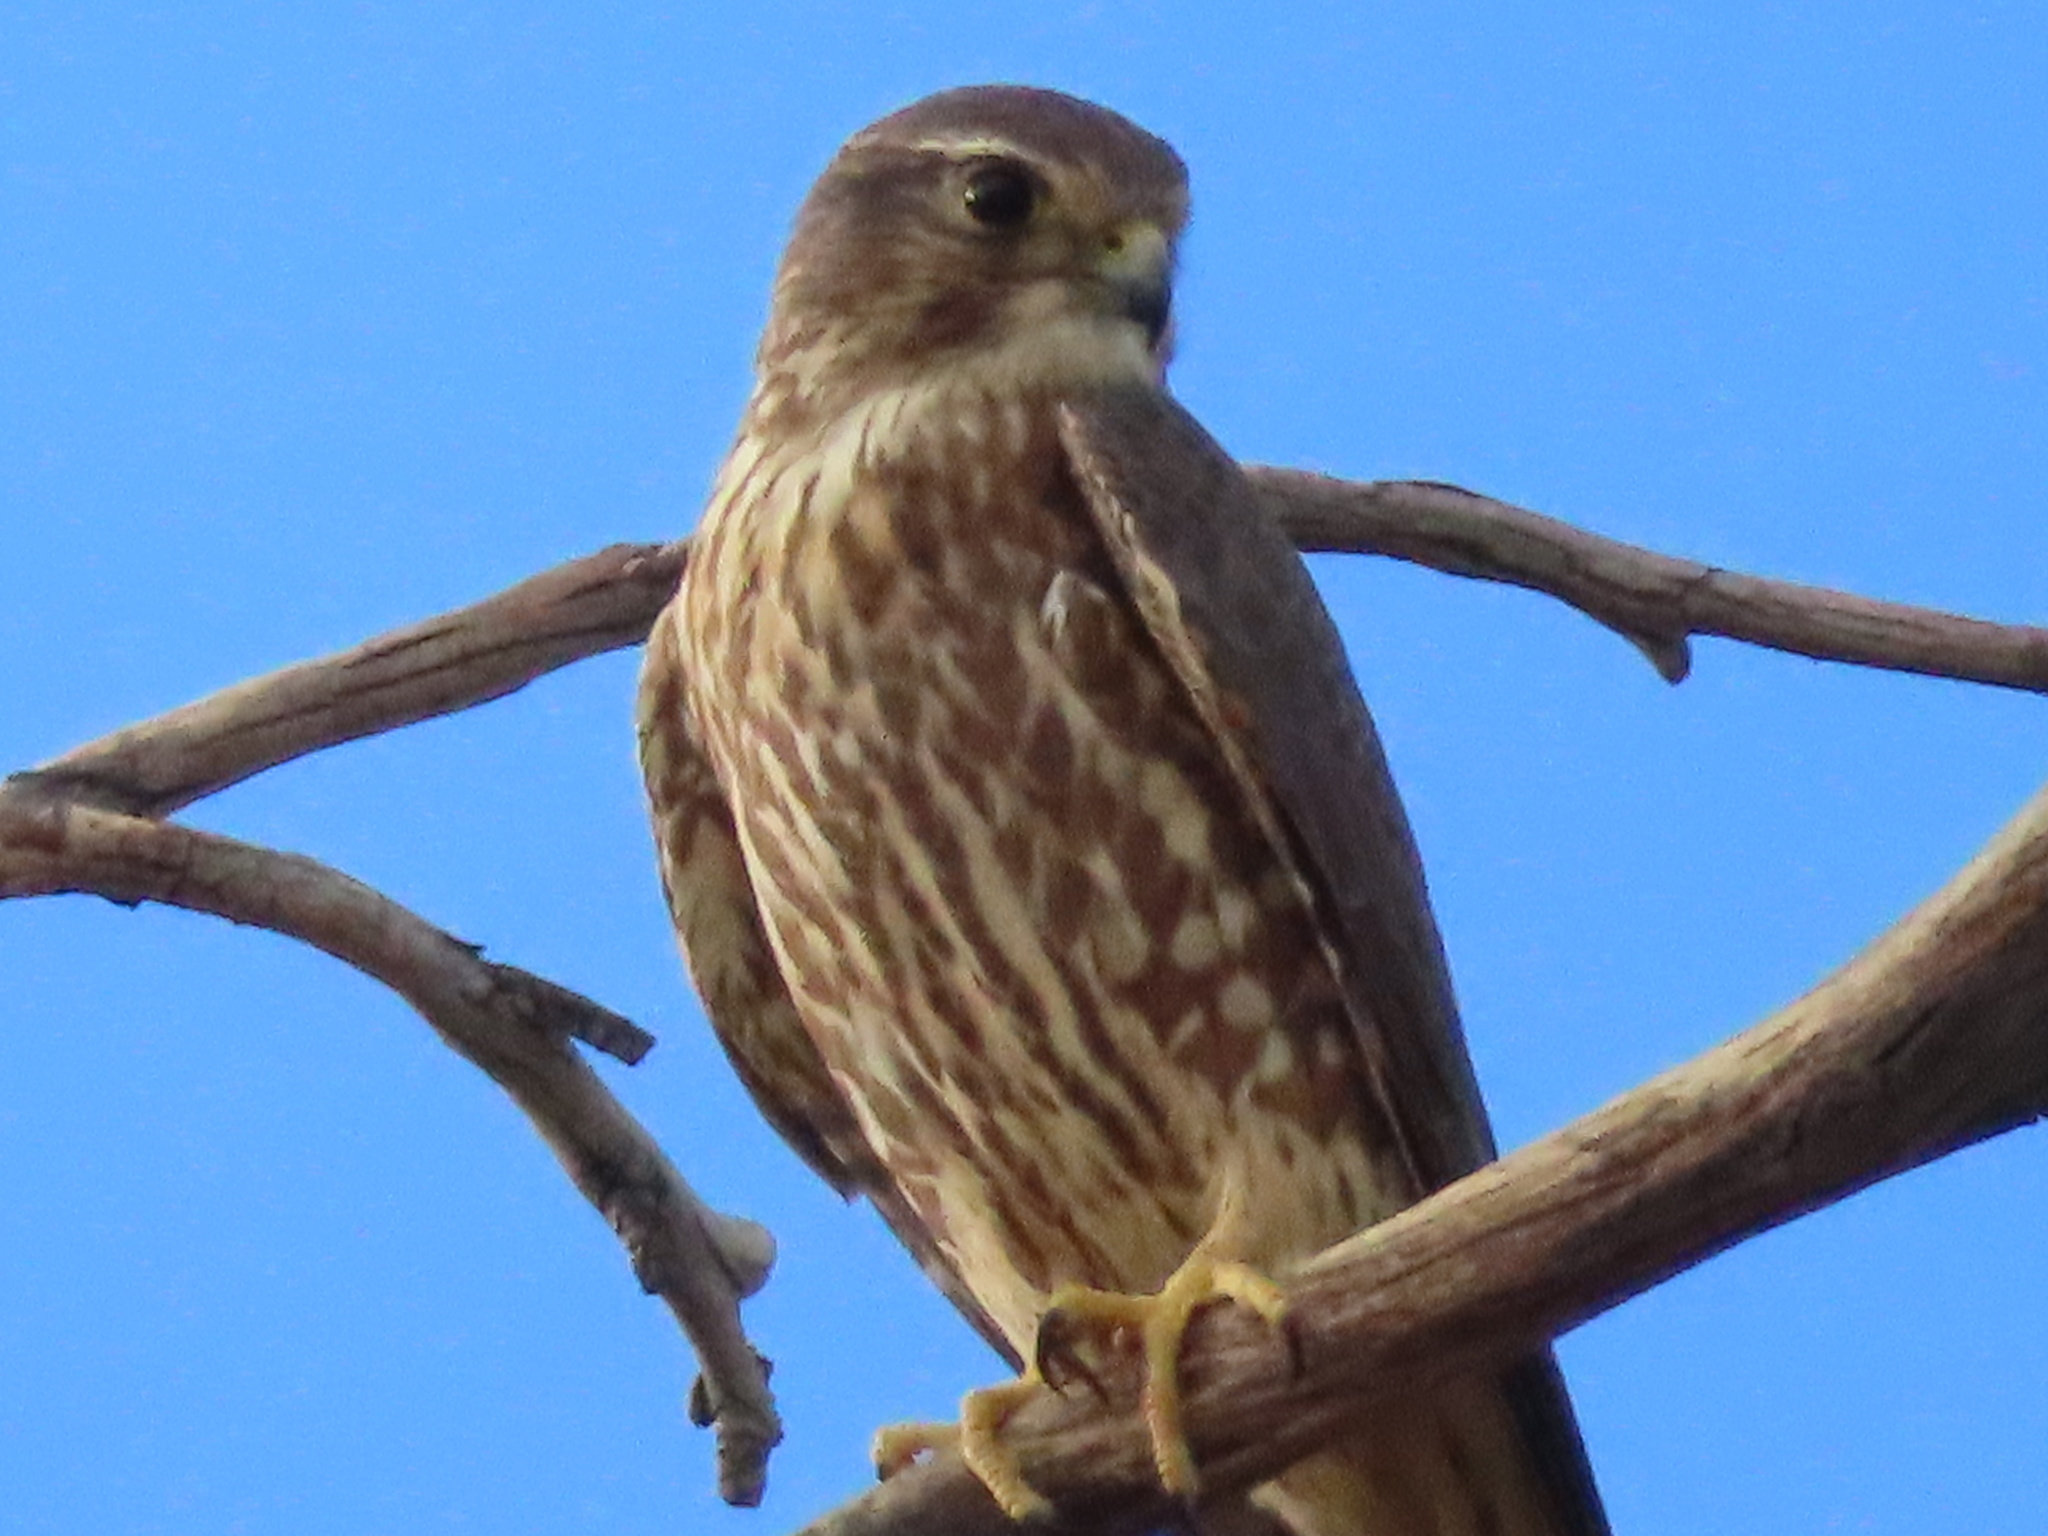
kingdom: Animalia
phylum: Chordata
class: Aves
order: Falconiformes
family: Falconidae
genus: Falco
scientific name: Falco columbarius
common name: Merlin
